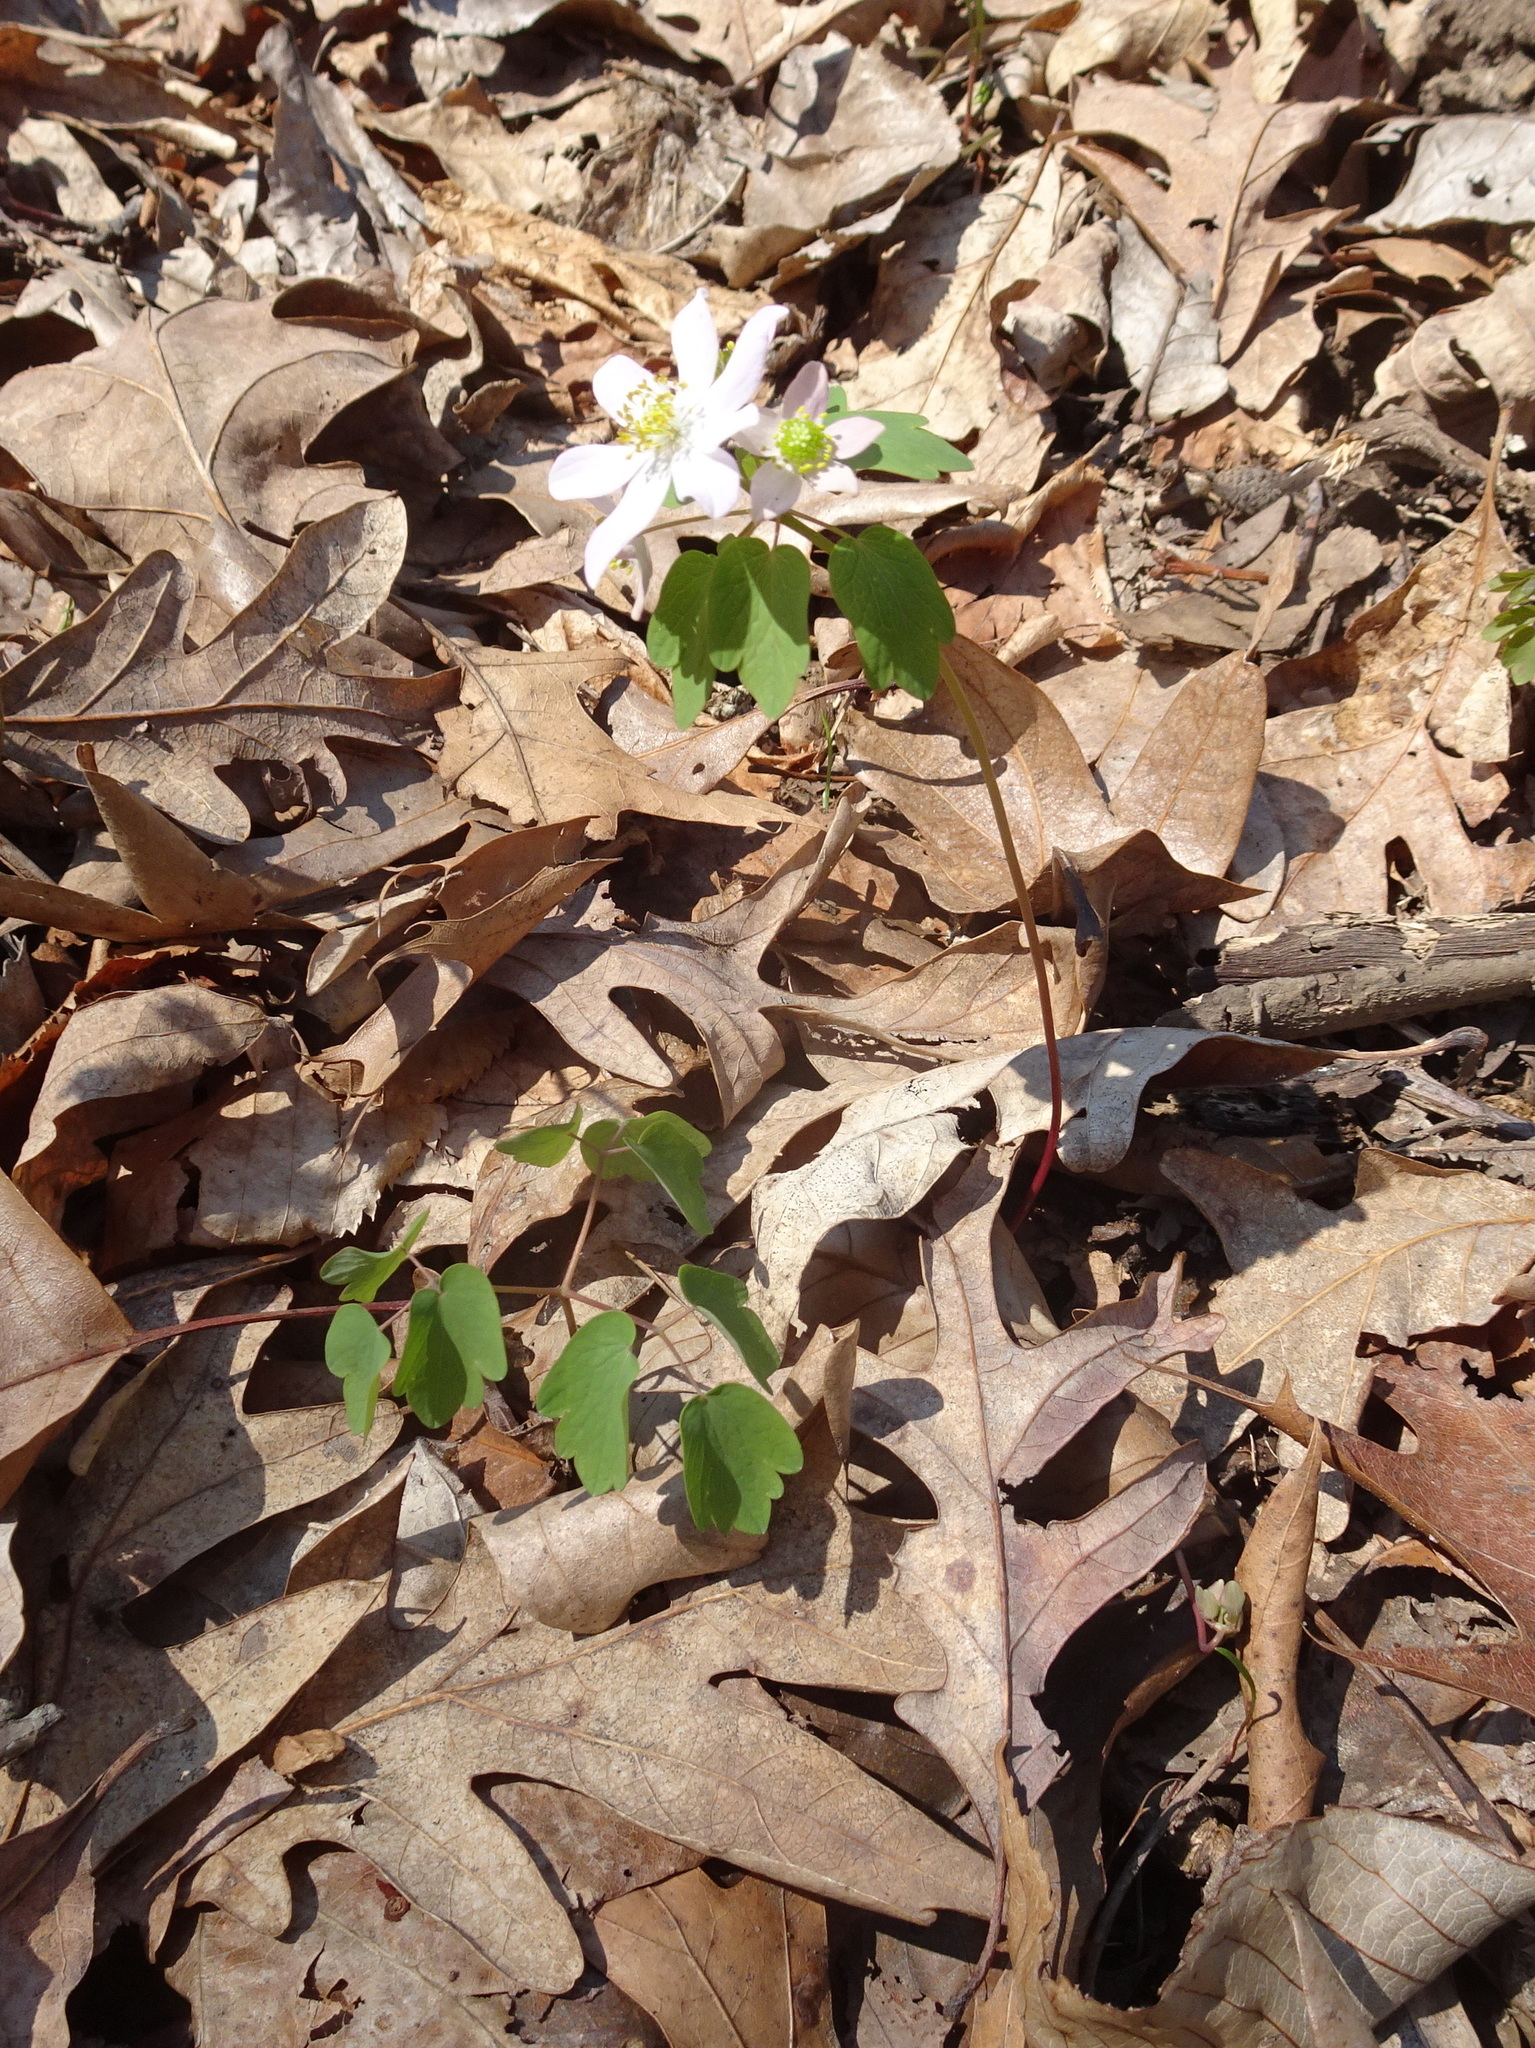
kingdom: Plantae
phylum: Tracheophyta
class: Magnoliopsida
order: Ranunculales
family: Ranunculaceae
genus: Thalictrum
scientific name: Thalictrum thalictroides
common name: Rue-anemone
